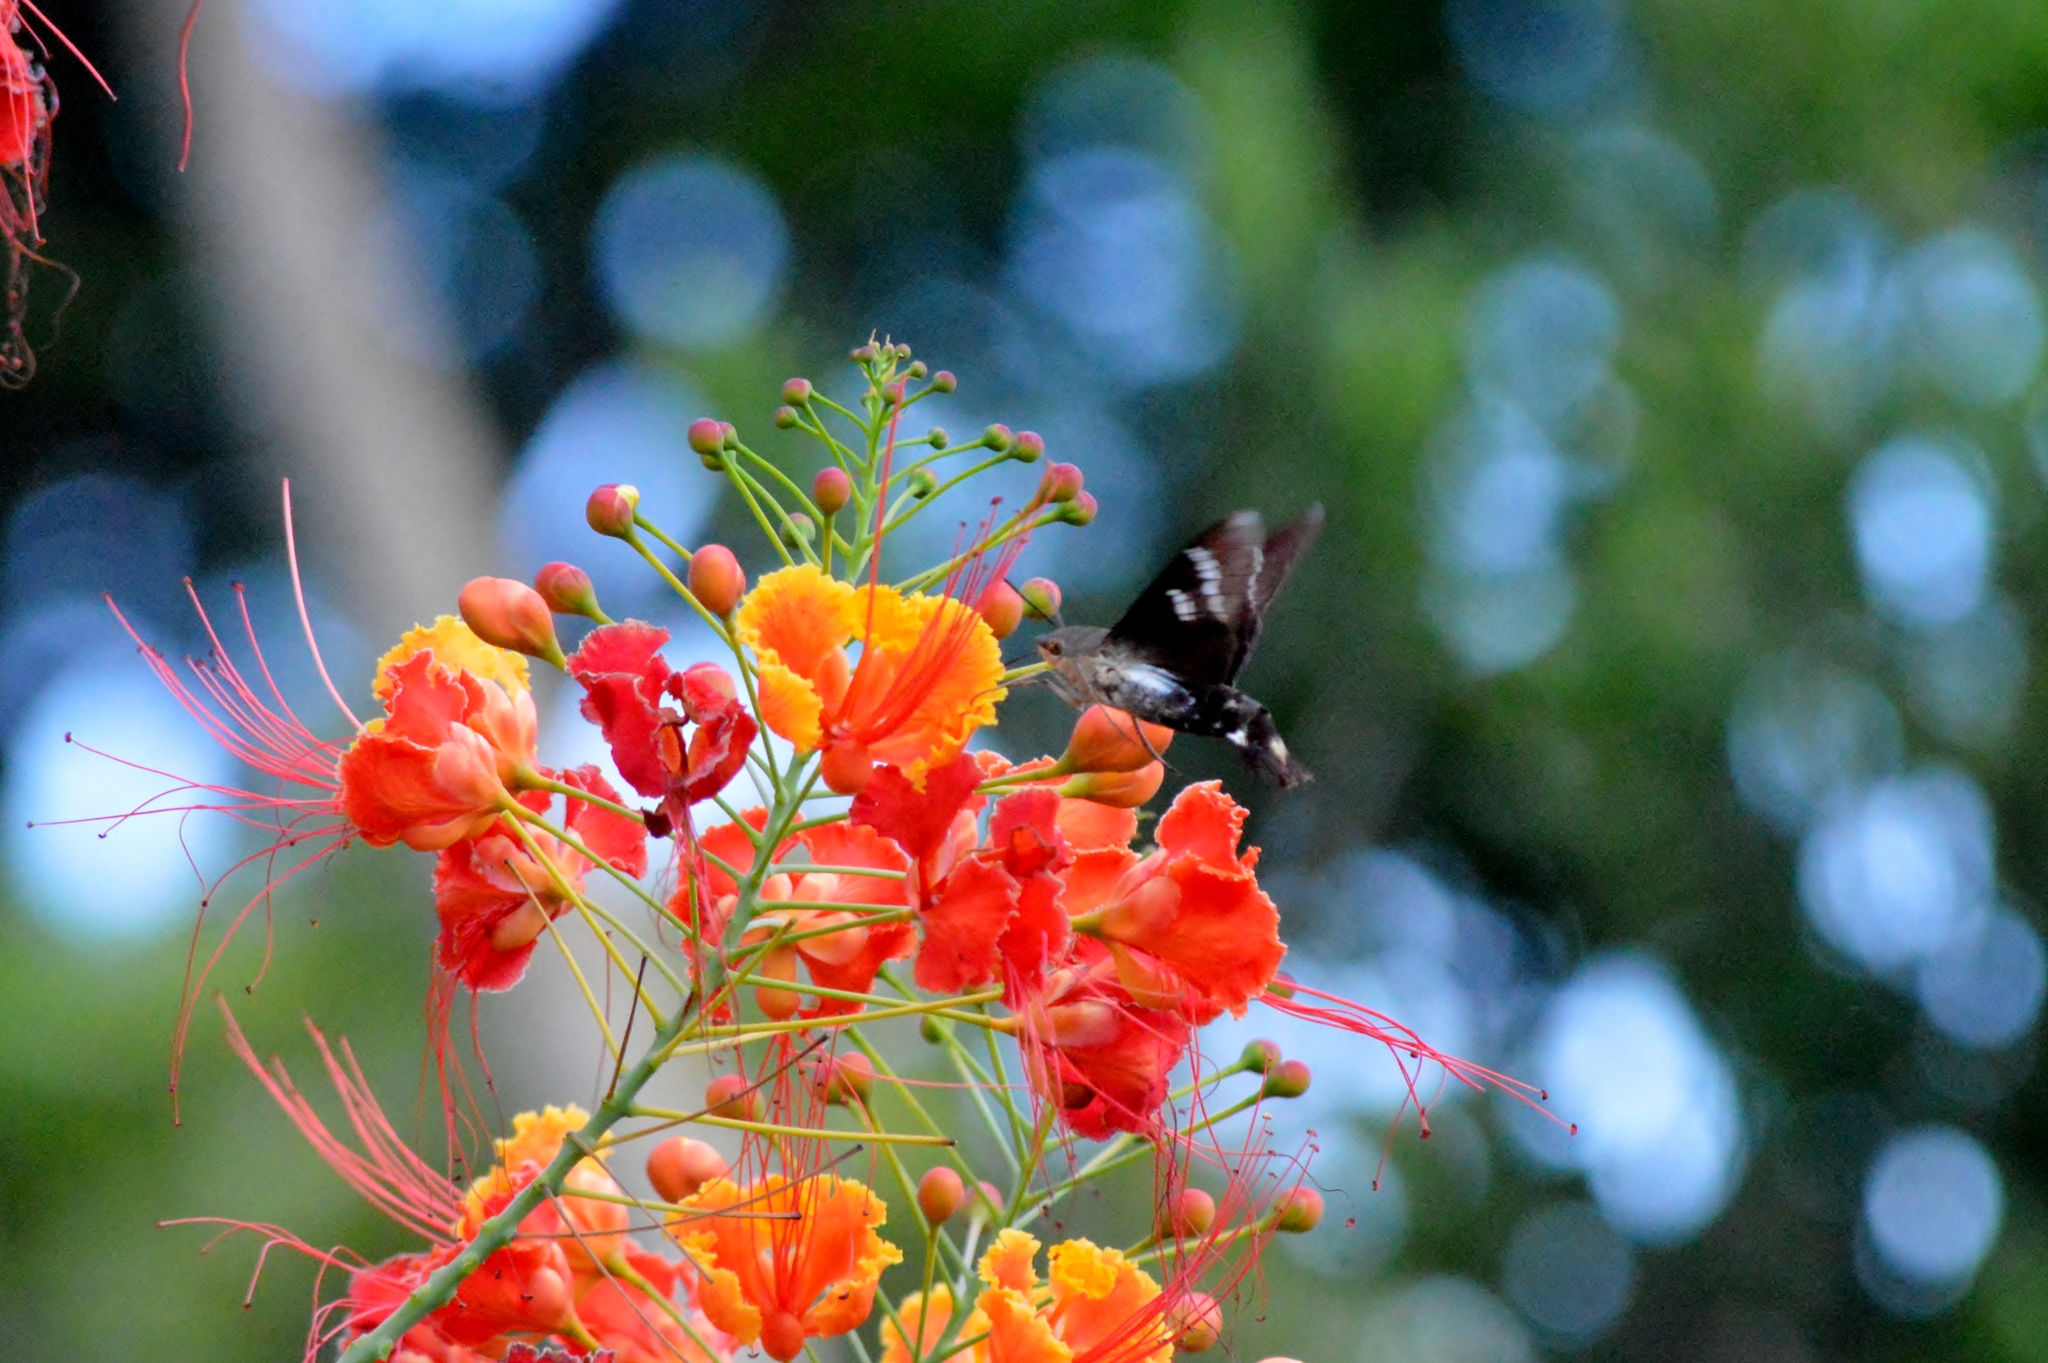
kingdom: Animalia
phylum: Arthropoda
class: Insecta
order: Lepidoptera
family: Sphingidae
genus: Aellopos
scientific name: Aellopos
